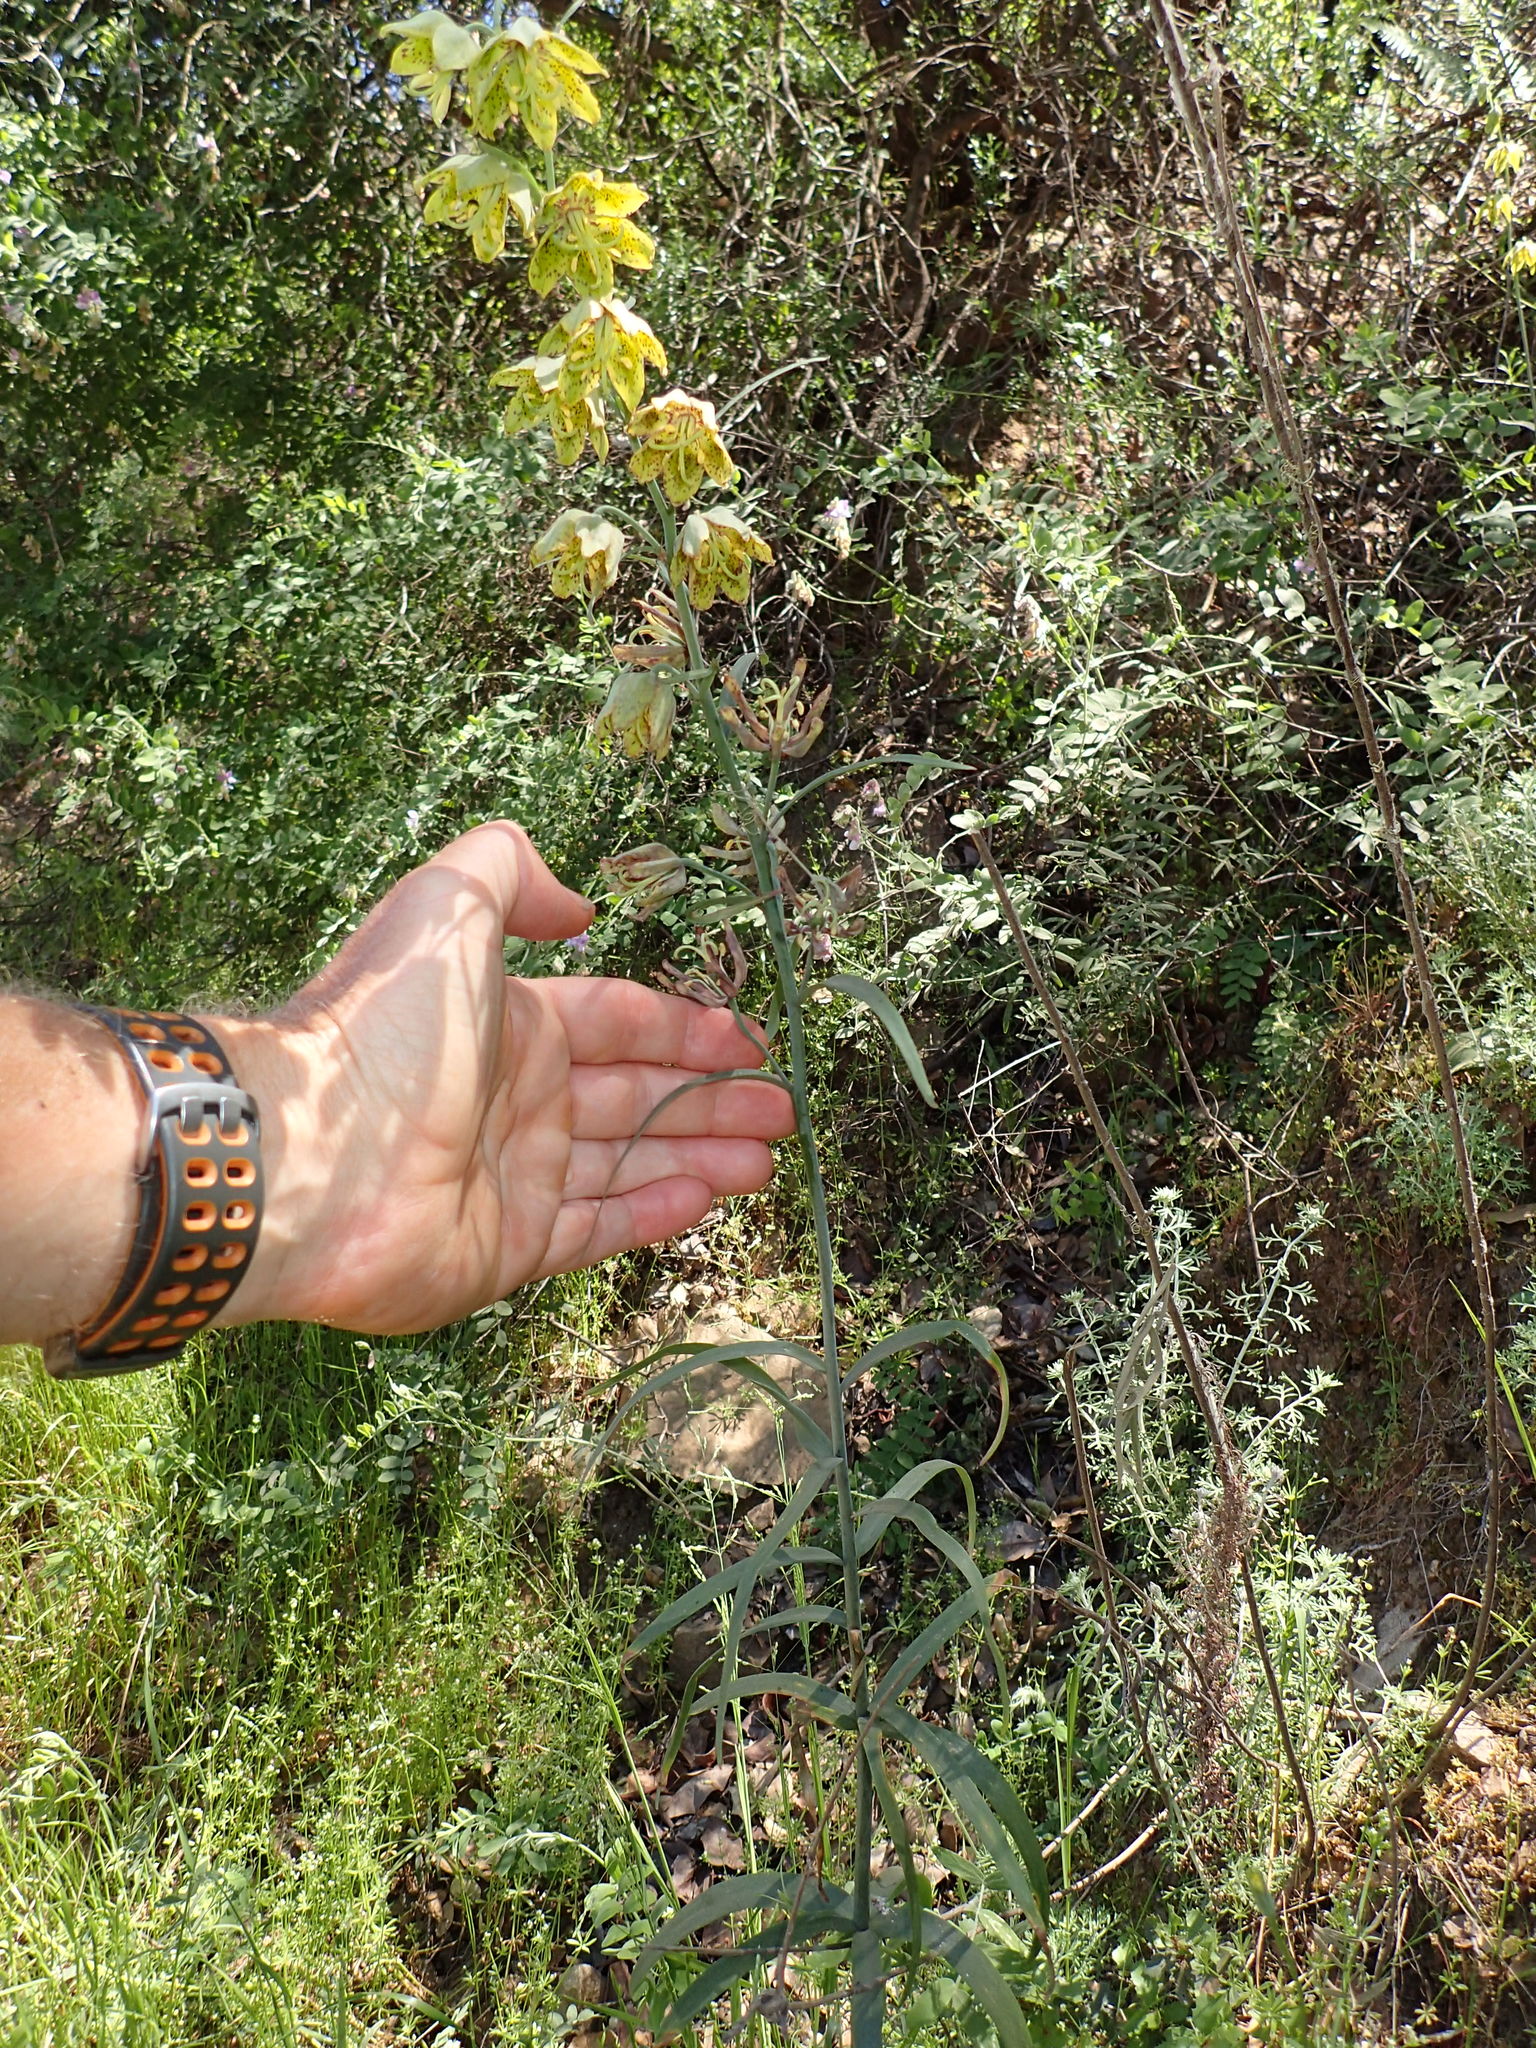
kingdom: Plantae
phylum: Tracheophyta
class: Liliopsida
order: Liliales
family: Liliaceae
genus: Fritillaria
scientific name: Fritillaria ojaiensis
